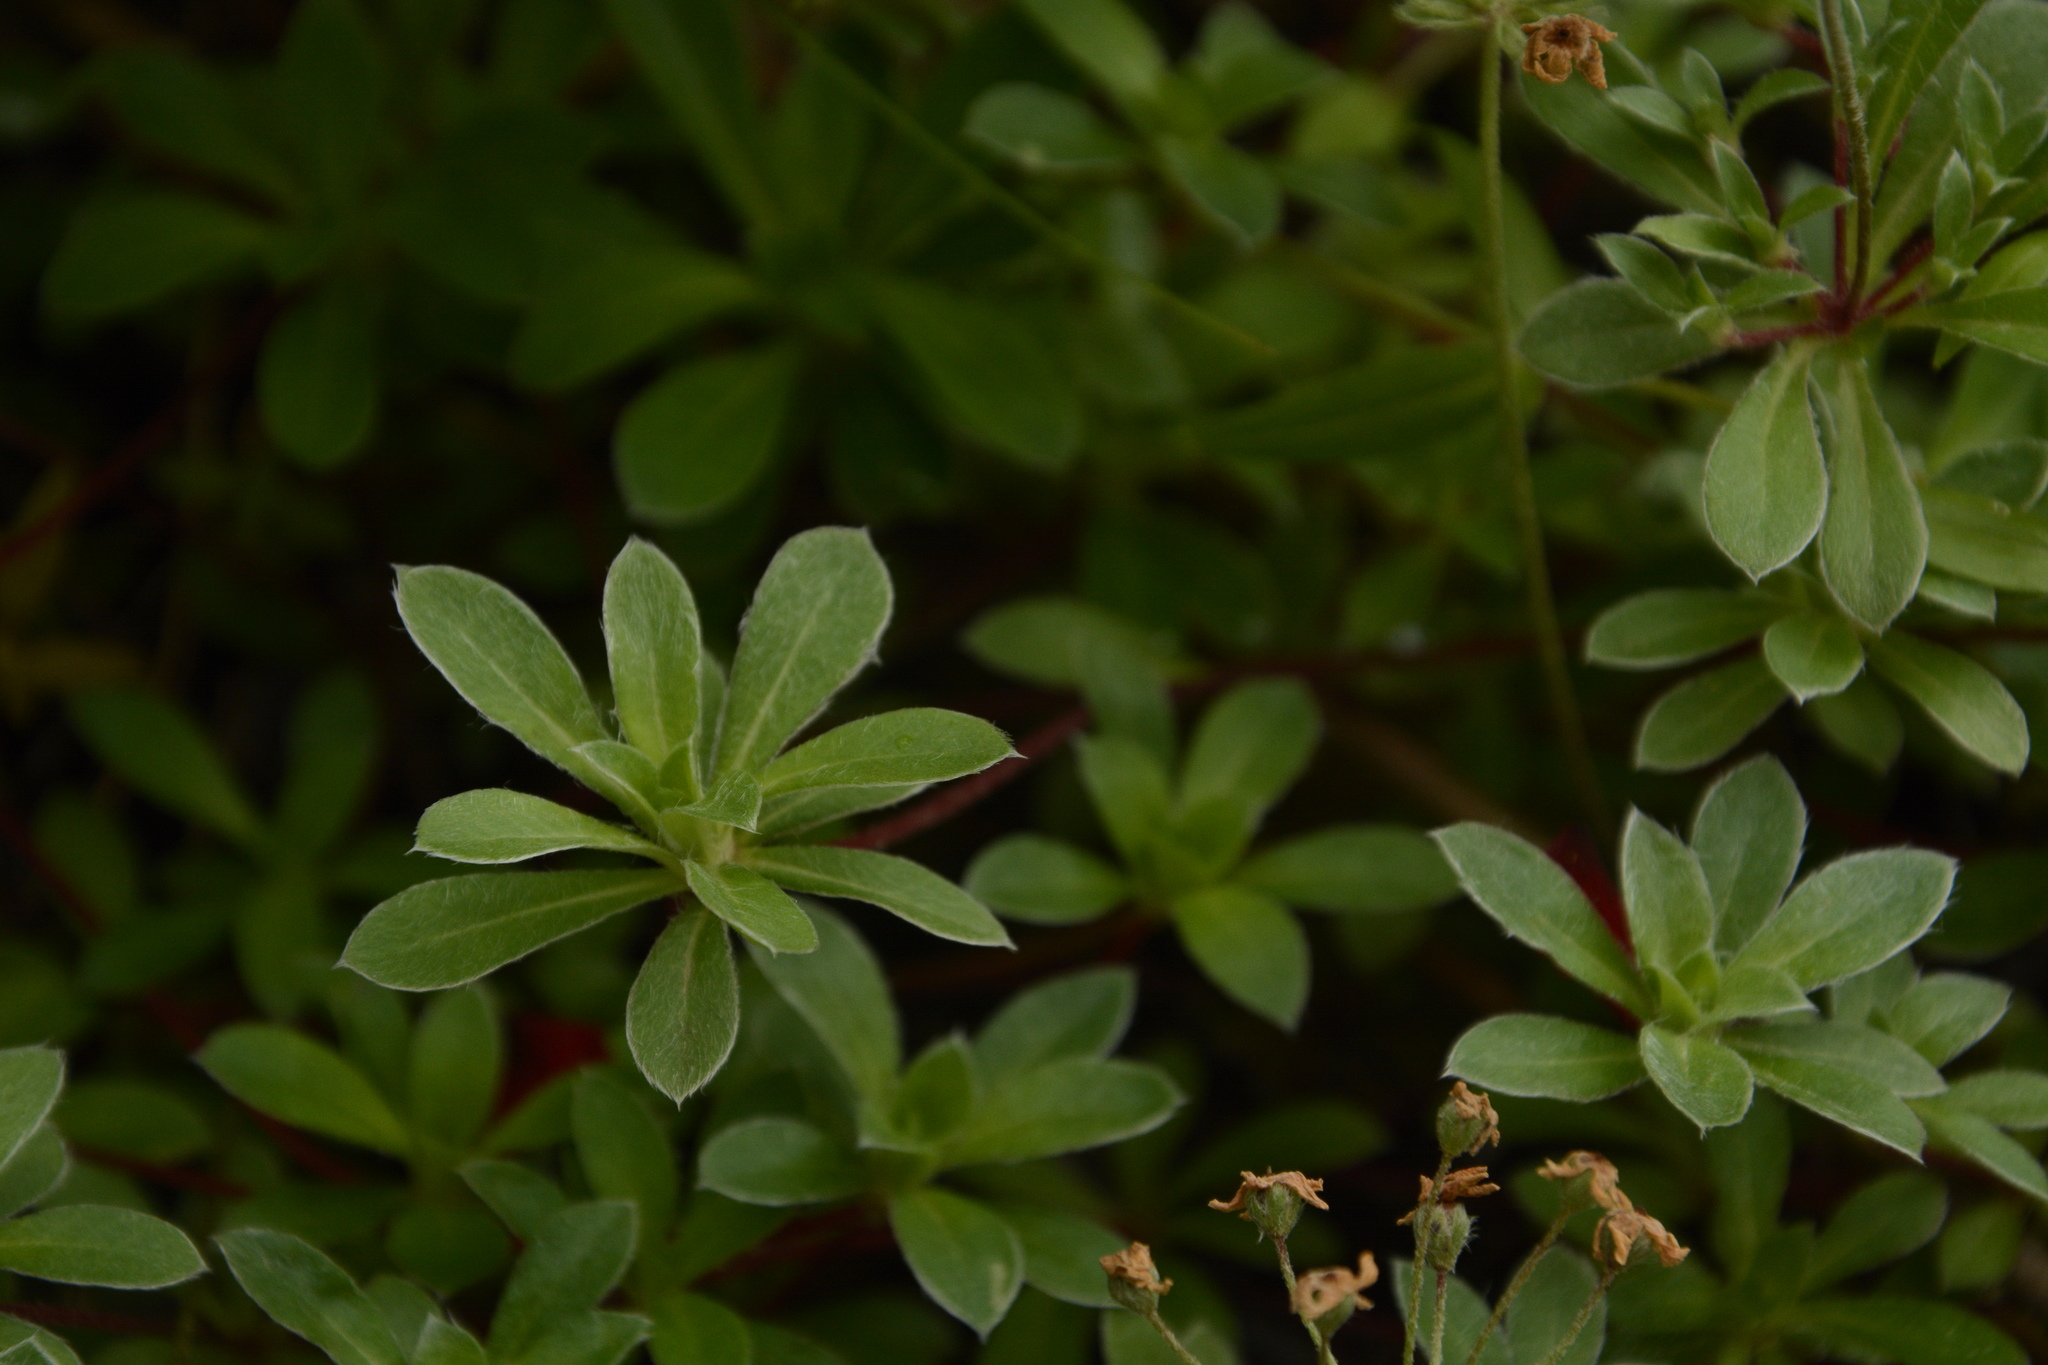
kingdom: Plantae
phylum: Tracheophyta
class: Magnoliopsida
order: Ericales
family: Primulaceae
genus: Androsace
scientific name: Androsace sarmentosa
